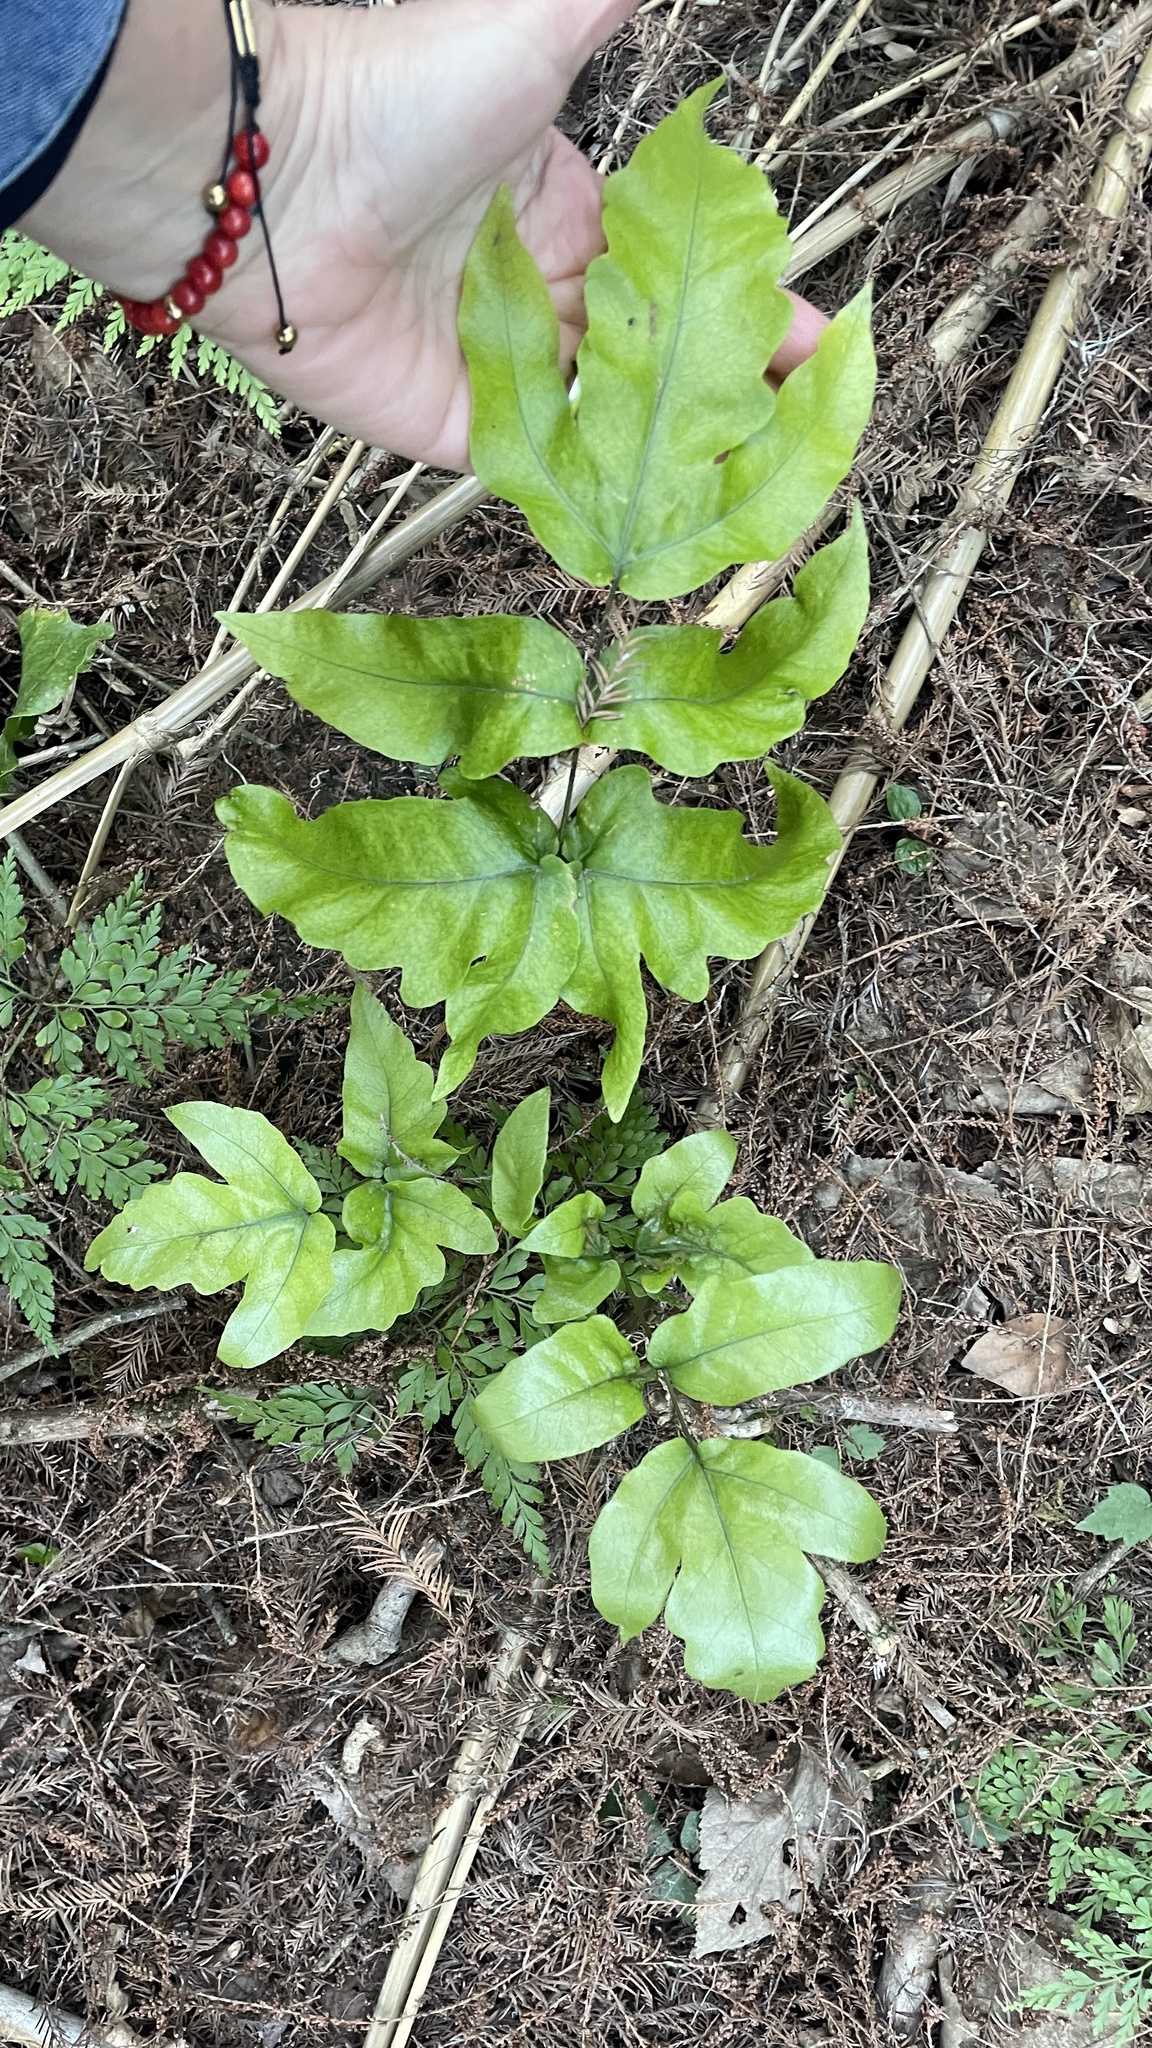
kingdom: Plantae
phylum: Tracheophyta
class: Polypodiopsida
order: Polypodiales
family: Tectariaceae
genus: Tectaria
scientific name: Tectaria heracleifolia
